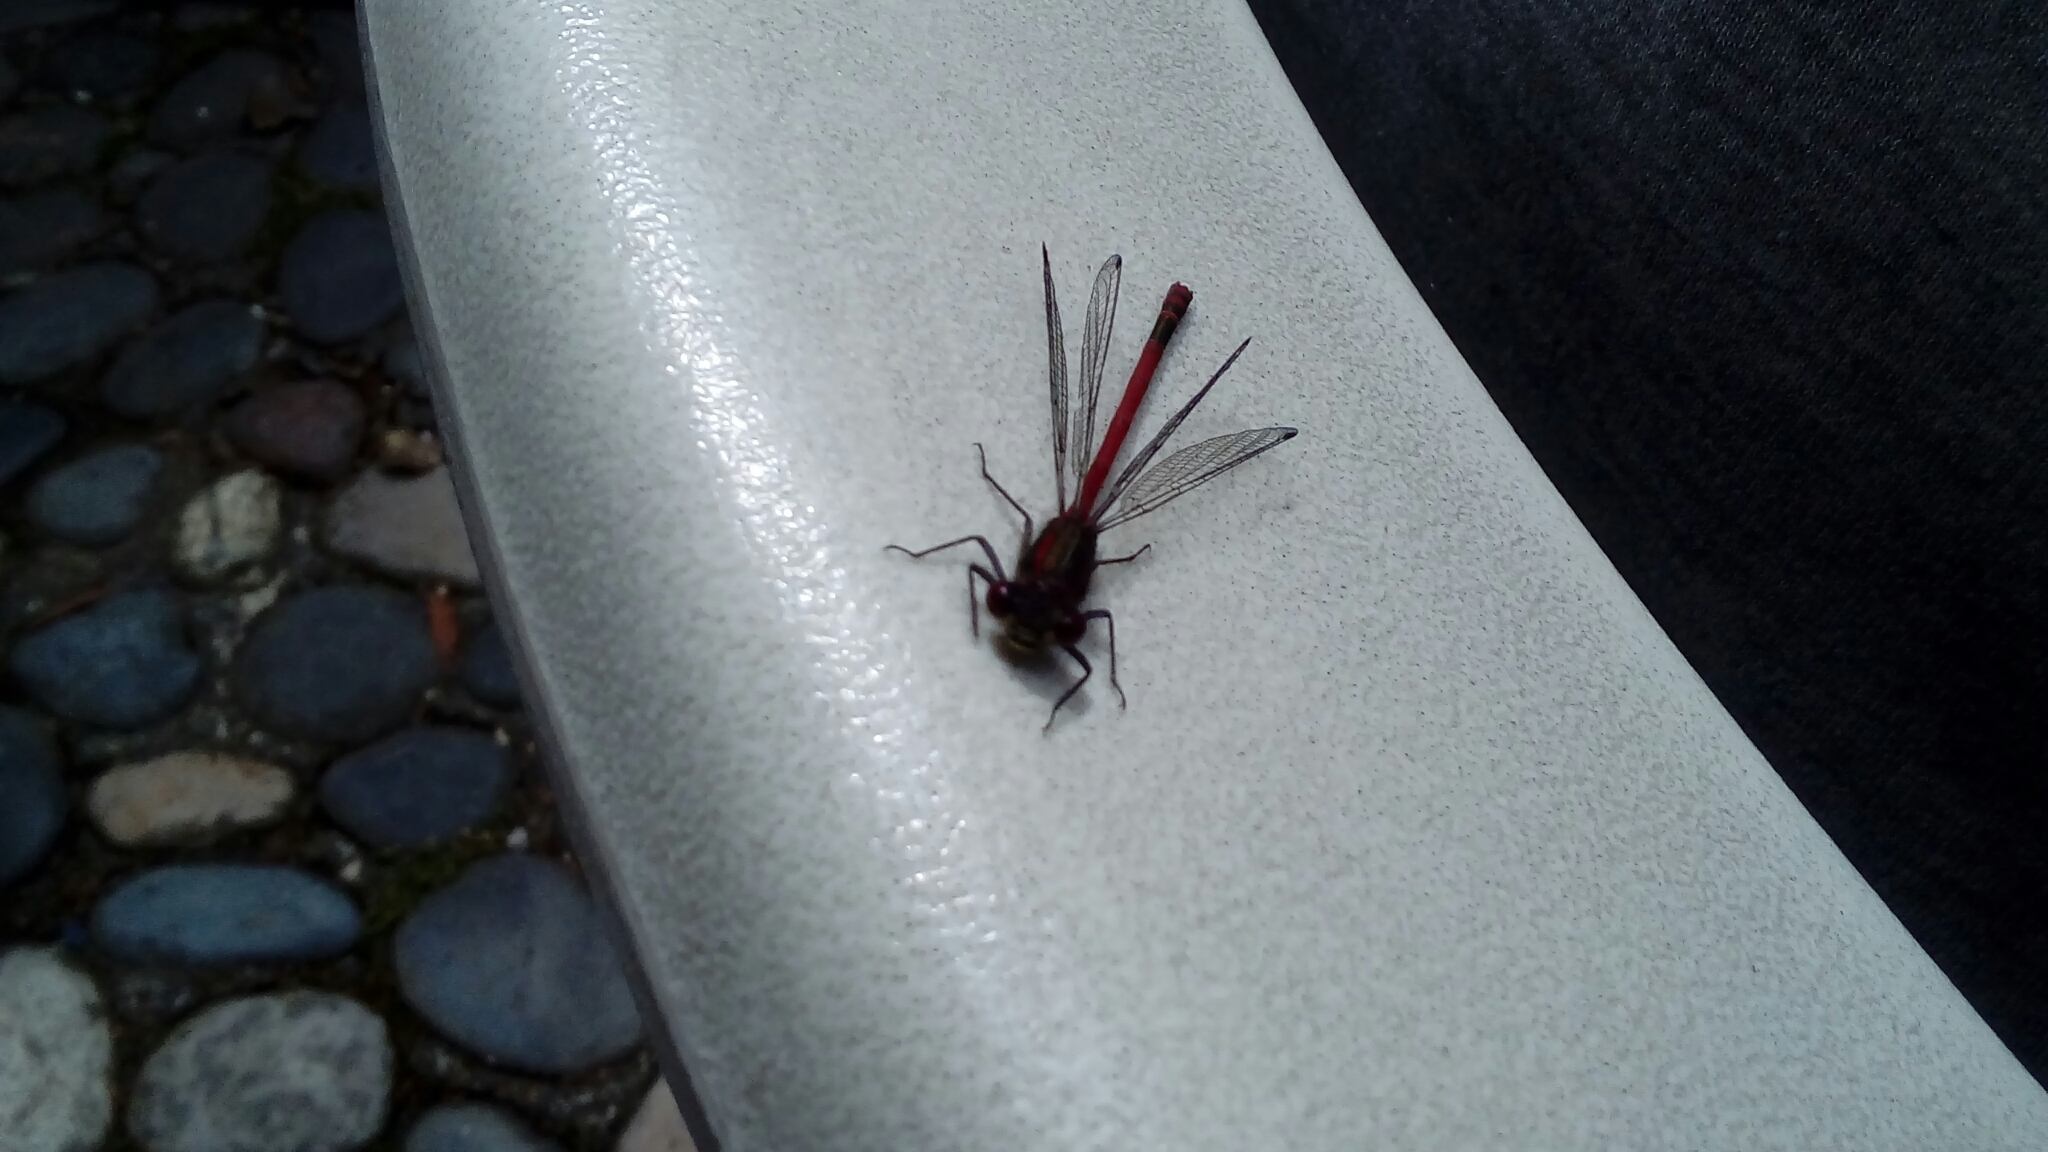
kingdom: Animalia
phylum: Arthropoda
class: Insecta
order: Odonata
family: Coenagrionidae
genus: Pyrrhosoma
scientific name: Pyrrhosoma nymphula
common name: Large red damsel
